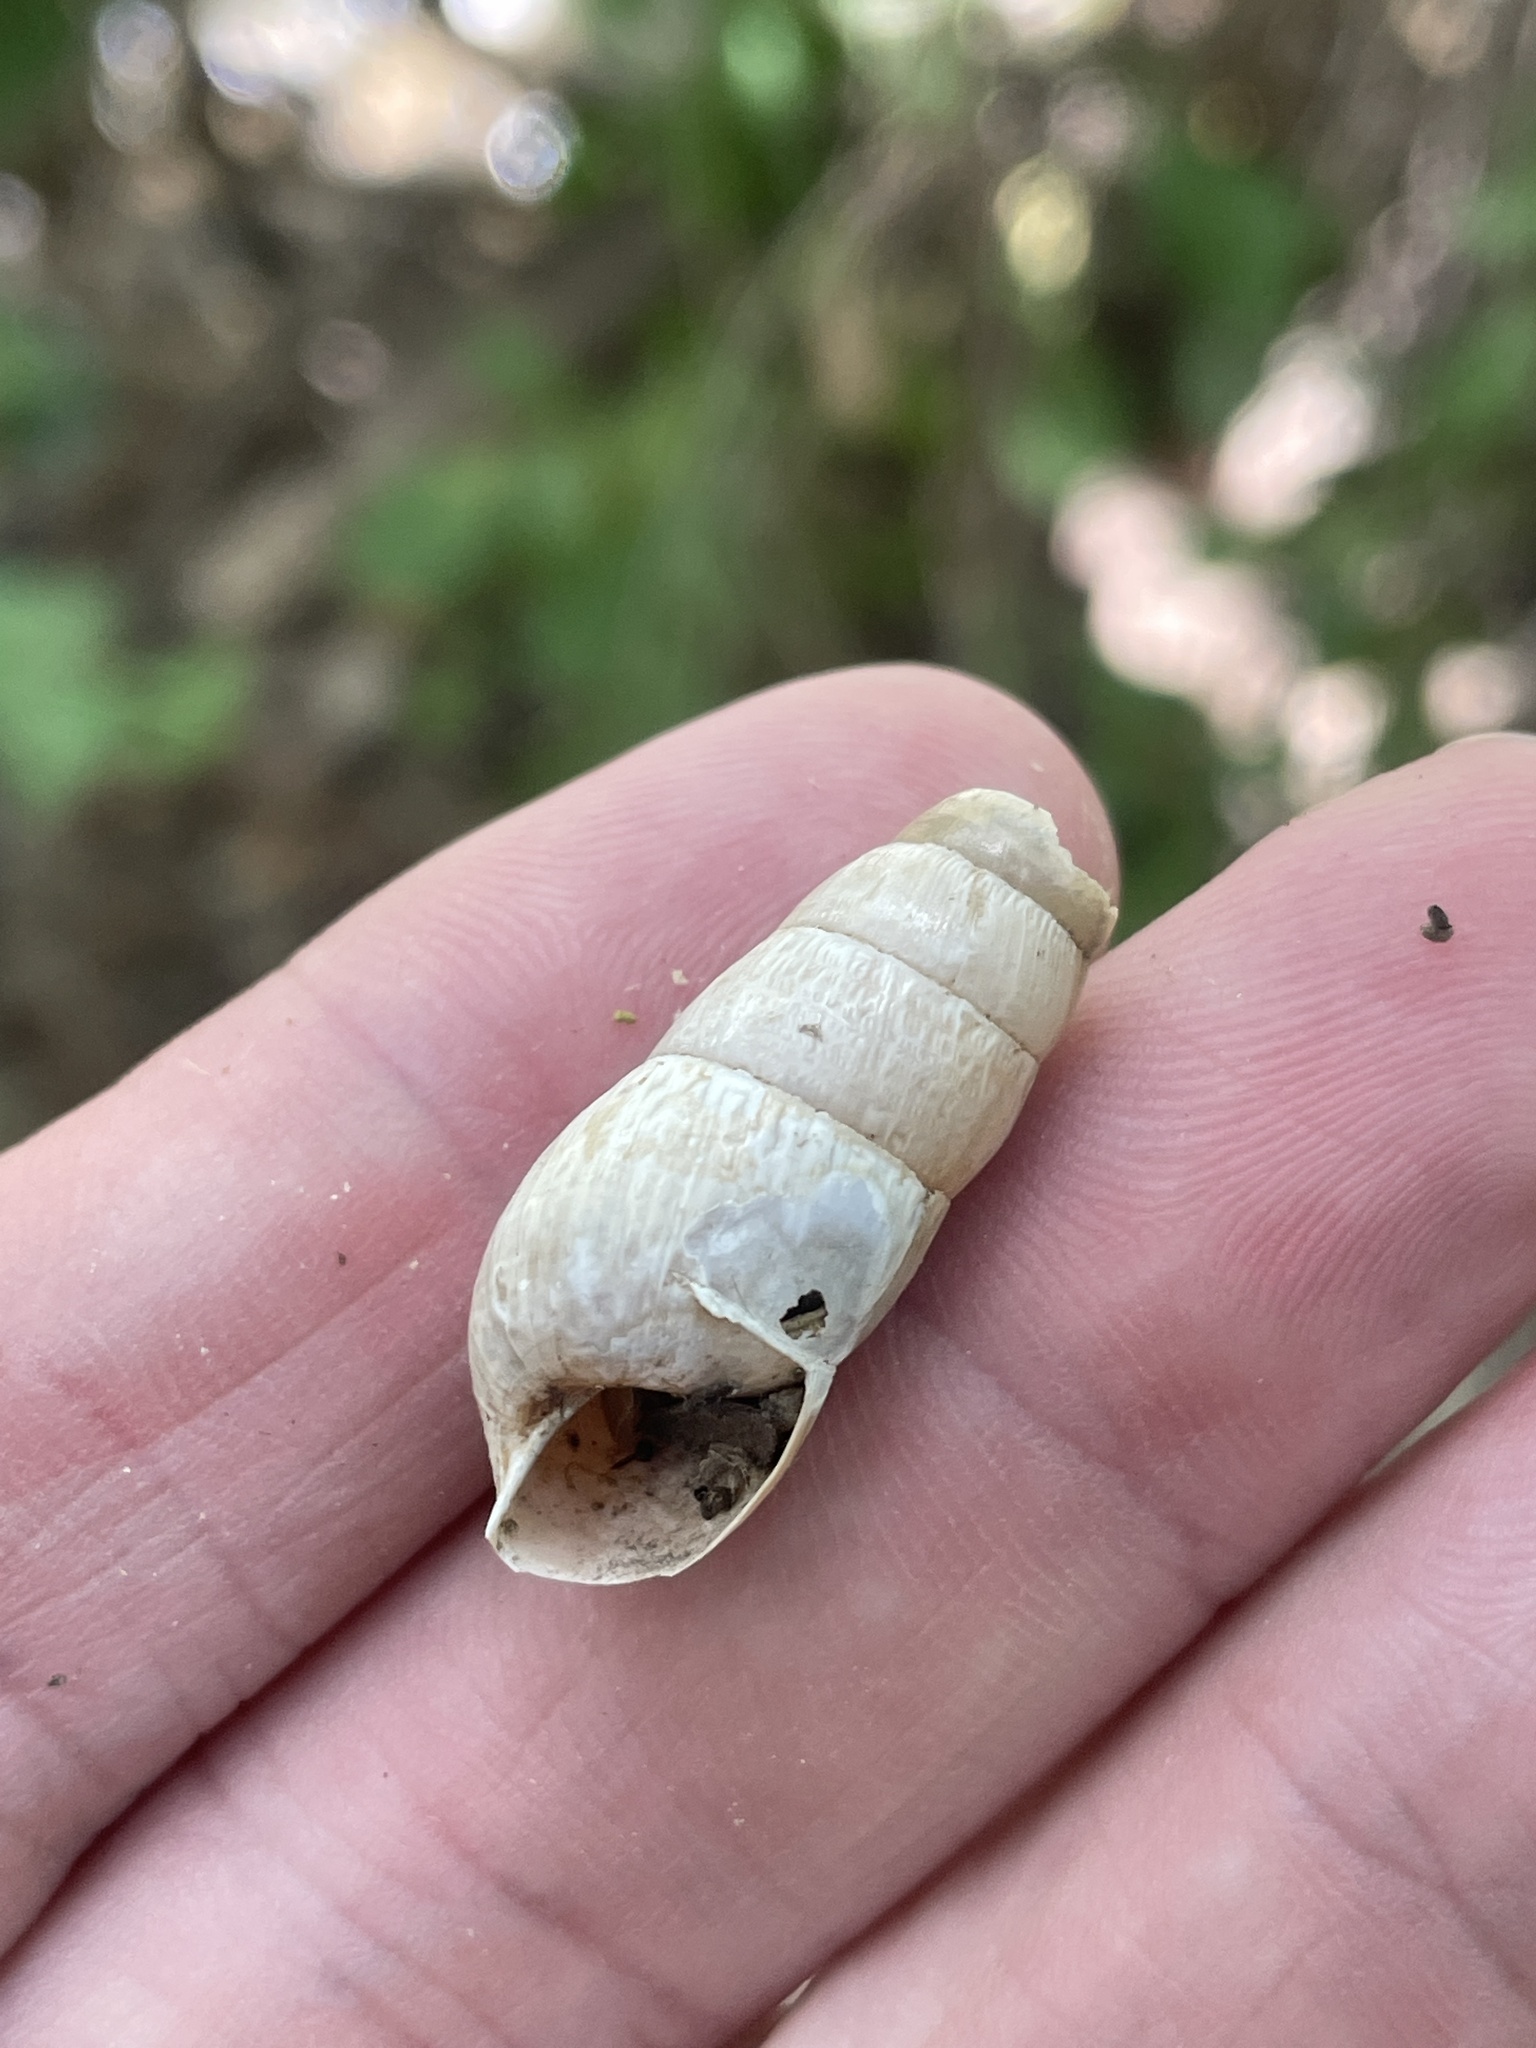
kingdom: Animalia
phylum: Mollusca
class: Gastropoda
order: Stylommatophora
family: Achatinidae
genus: Rumina
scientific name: Rumina decollata
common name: Decollate snail
